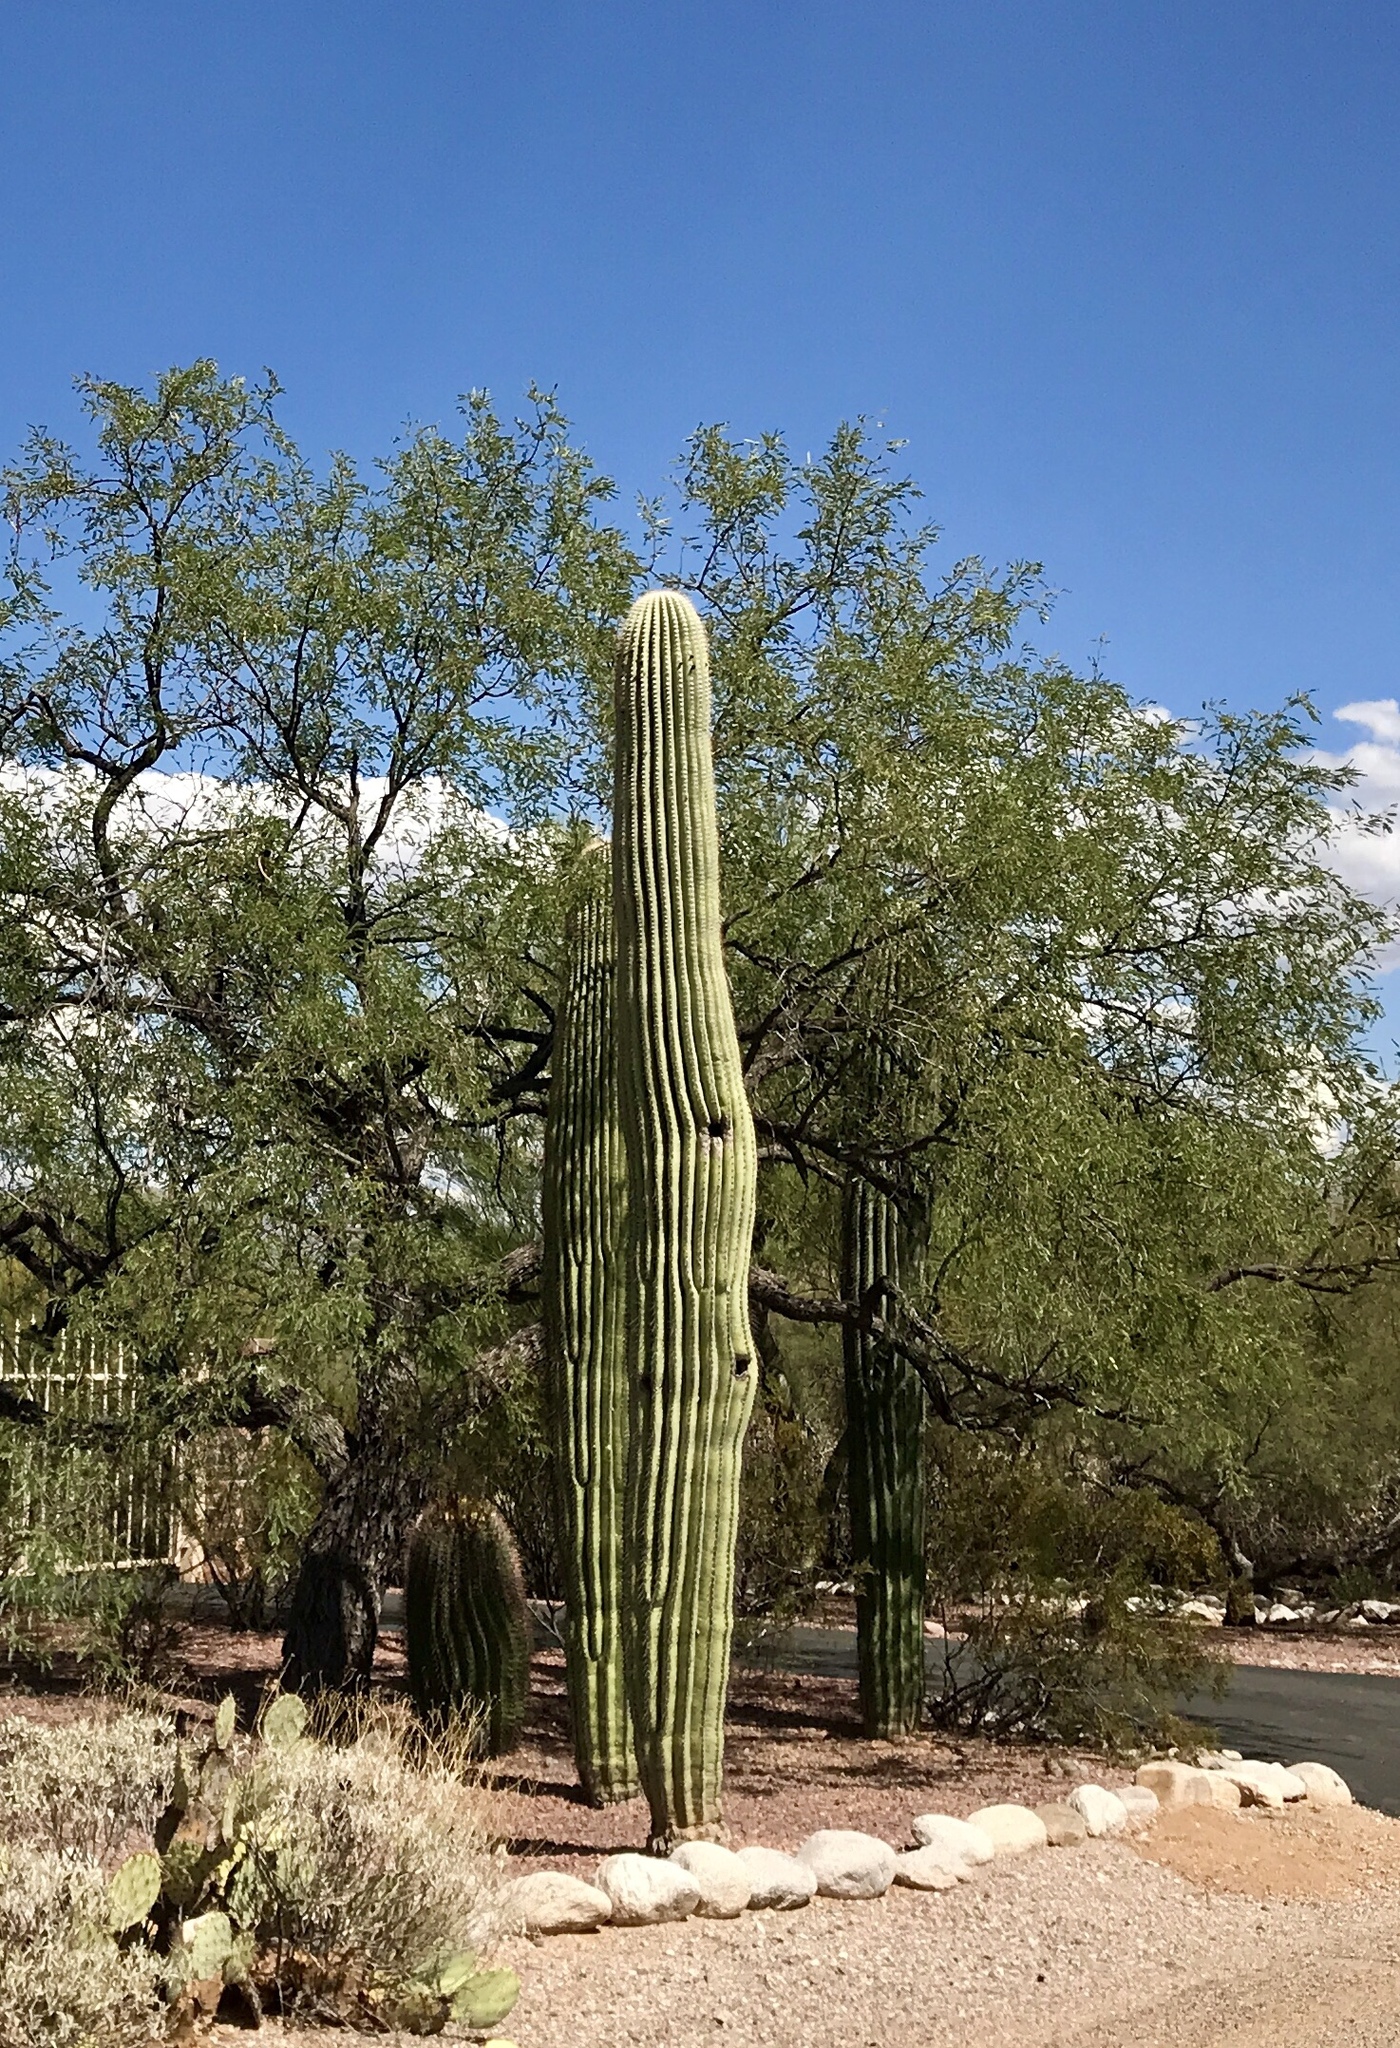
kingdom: Plantae
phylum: Tracheophyta
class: Magnoliopsida
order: Caryophyllales
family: Cactaceae
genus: Carnegiea
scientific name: Carnegiea gigantea
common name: Saguaro
